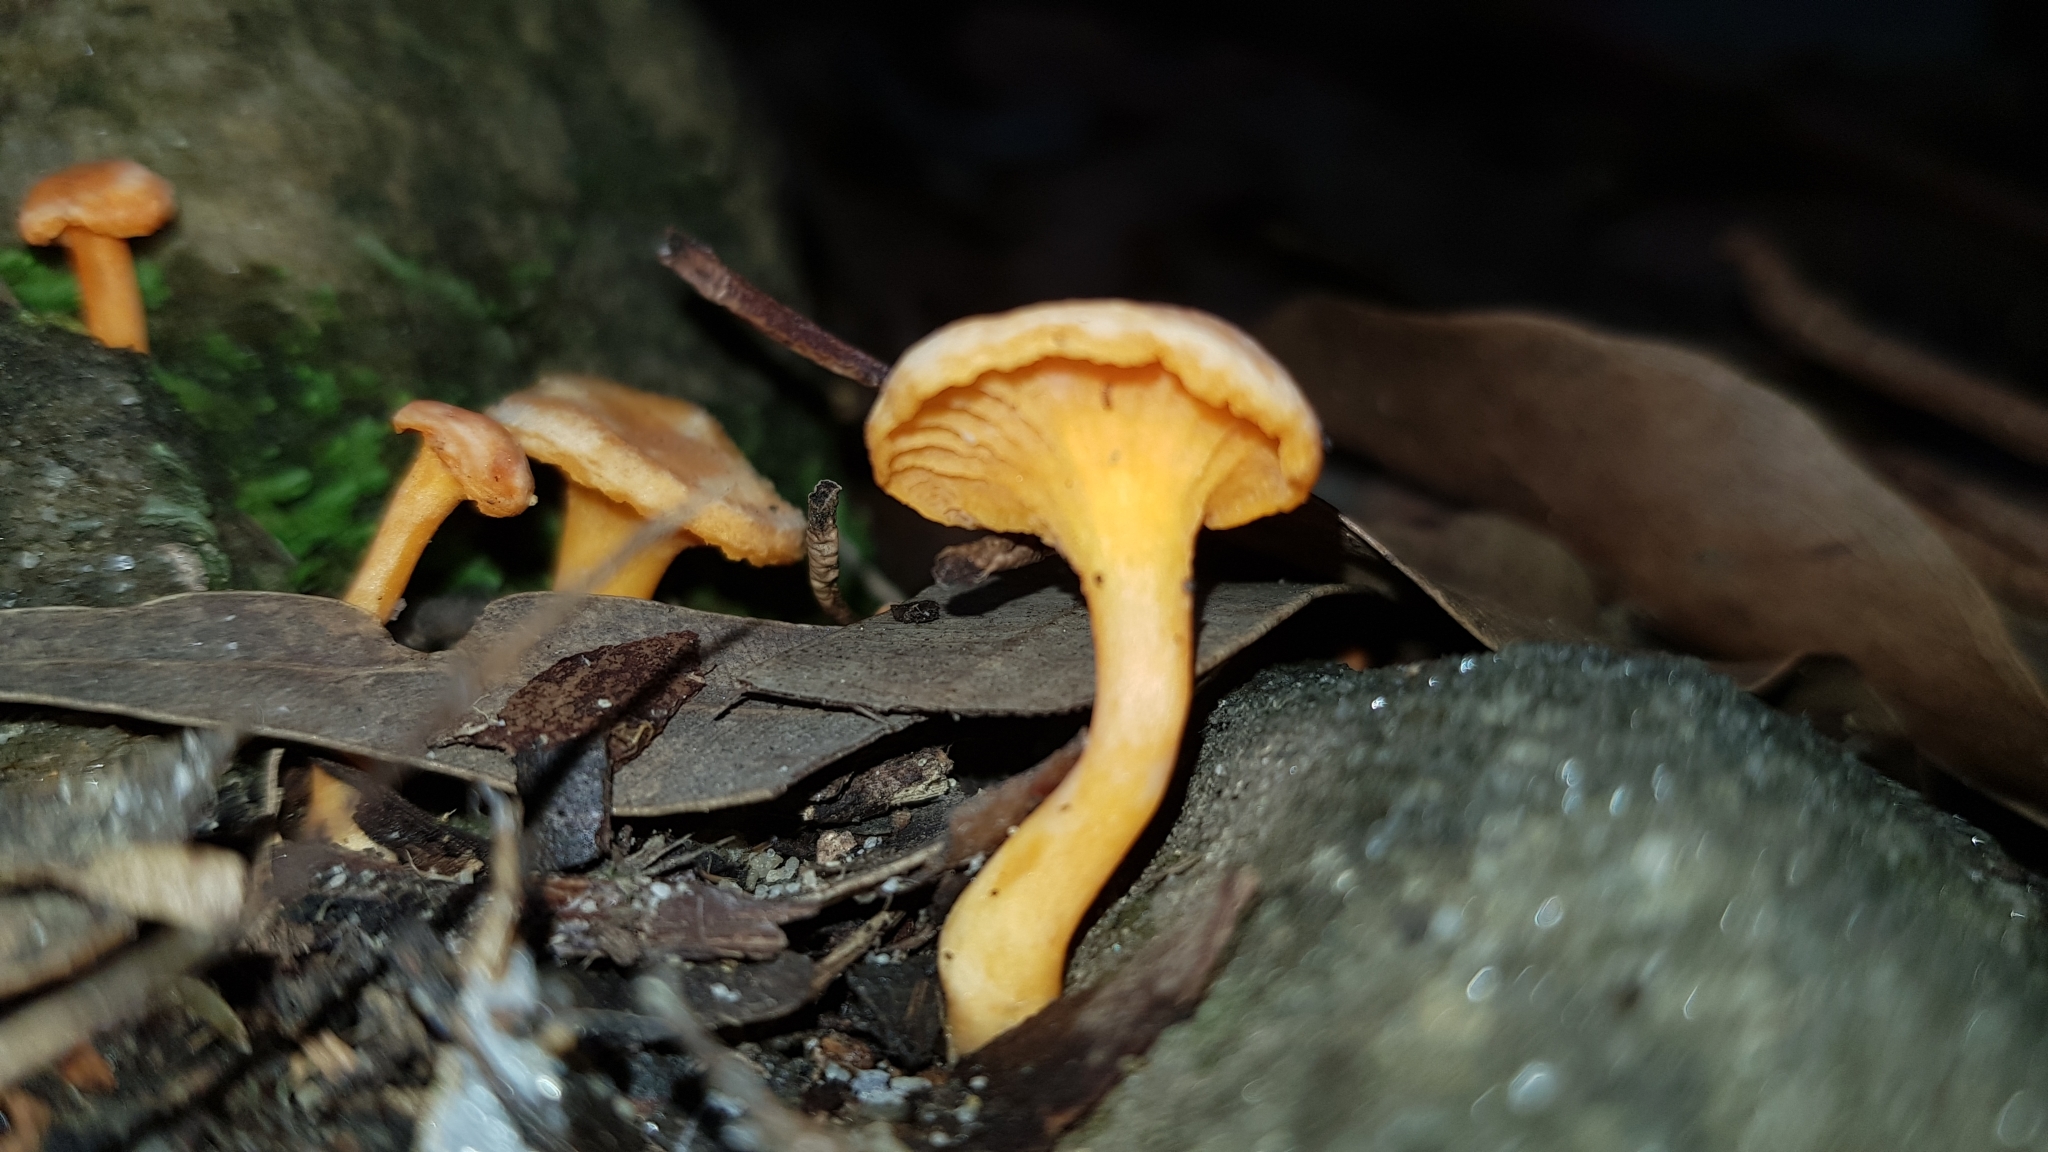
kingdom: Fungi
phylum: Basidiomycota
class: Agaricomycetes
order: Cantharellales
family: Hydnaceae
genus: Cantharellus
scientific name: Cantharellus
